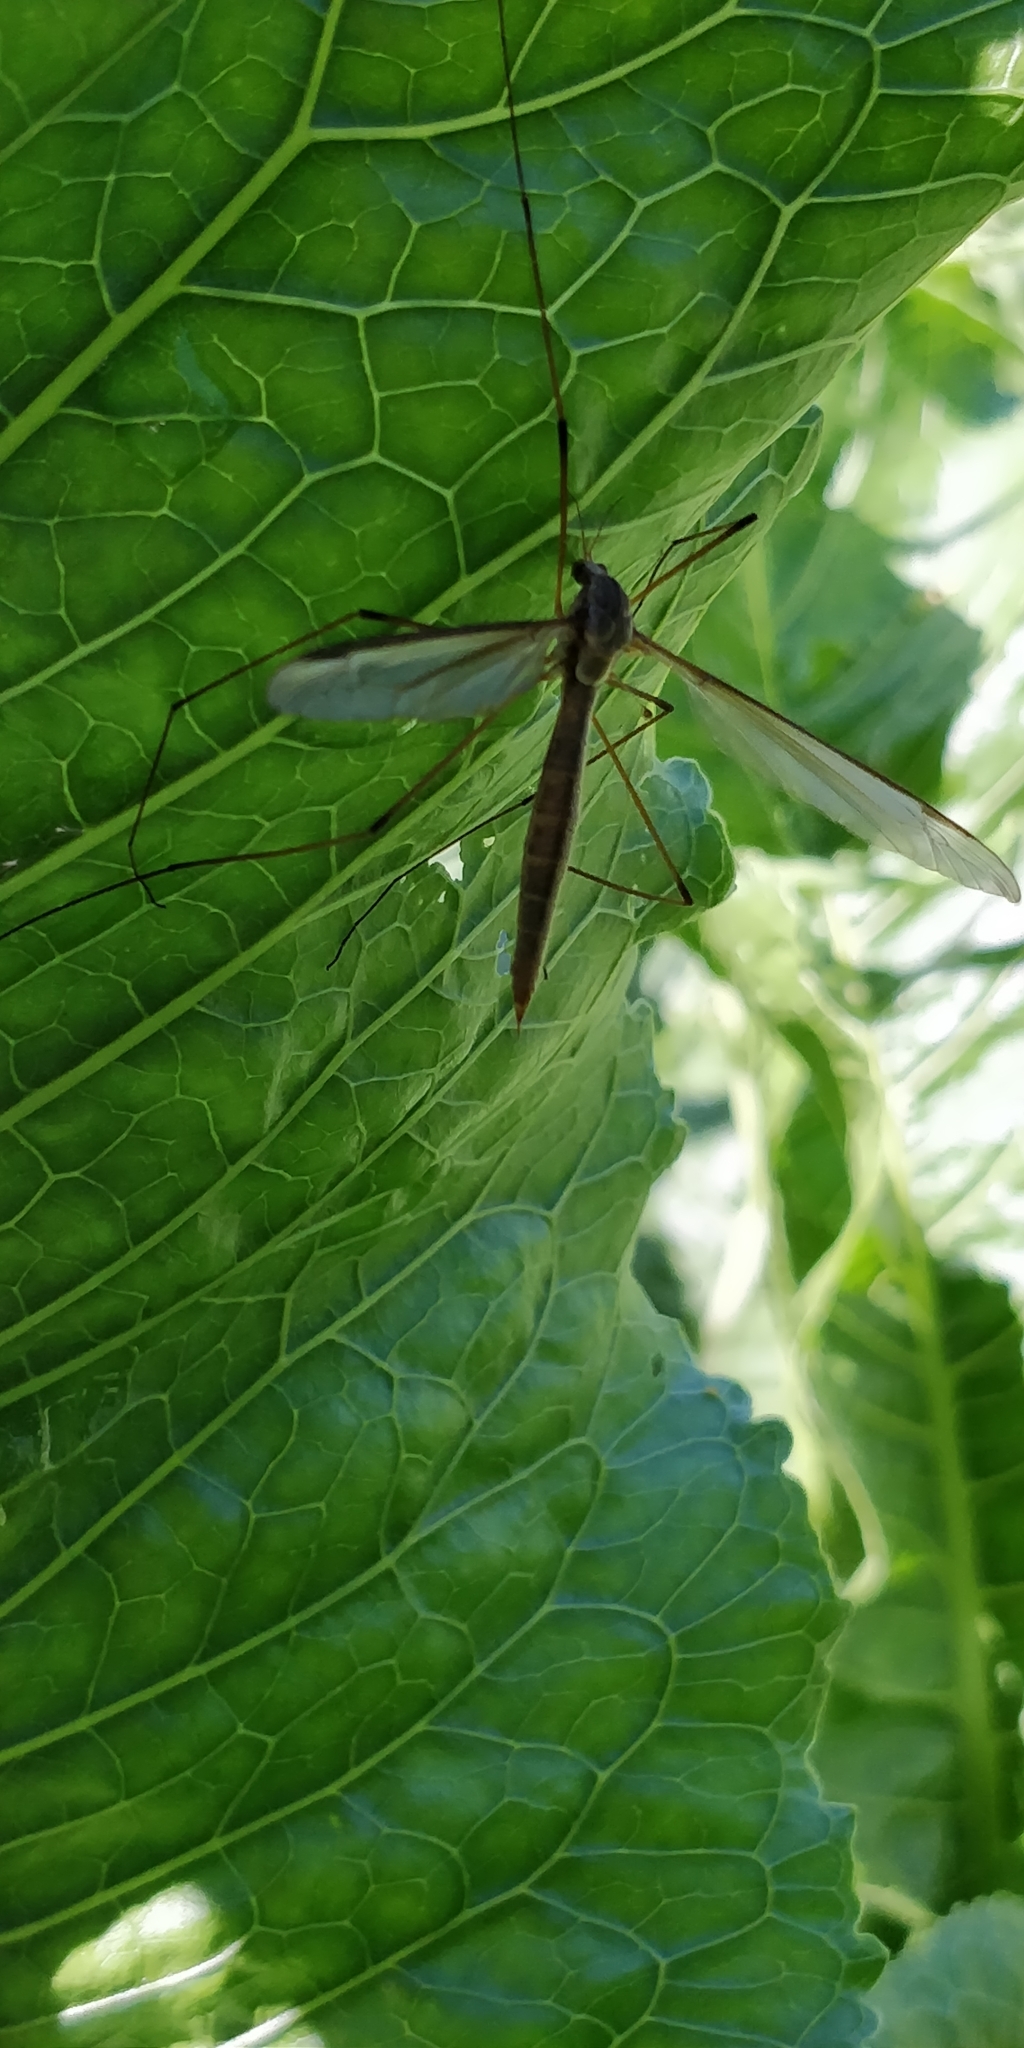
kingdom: Animalia
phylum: Arthropoda
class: Insecta
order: Diptera
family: Tipulidae
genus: Tipula
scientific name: Tipula
